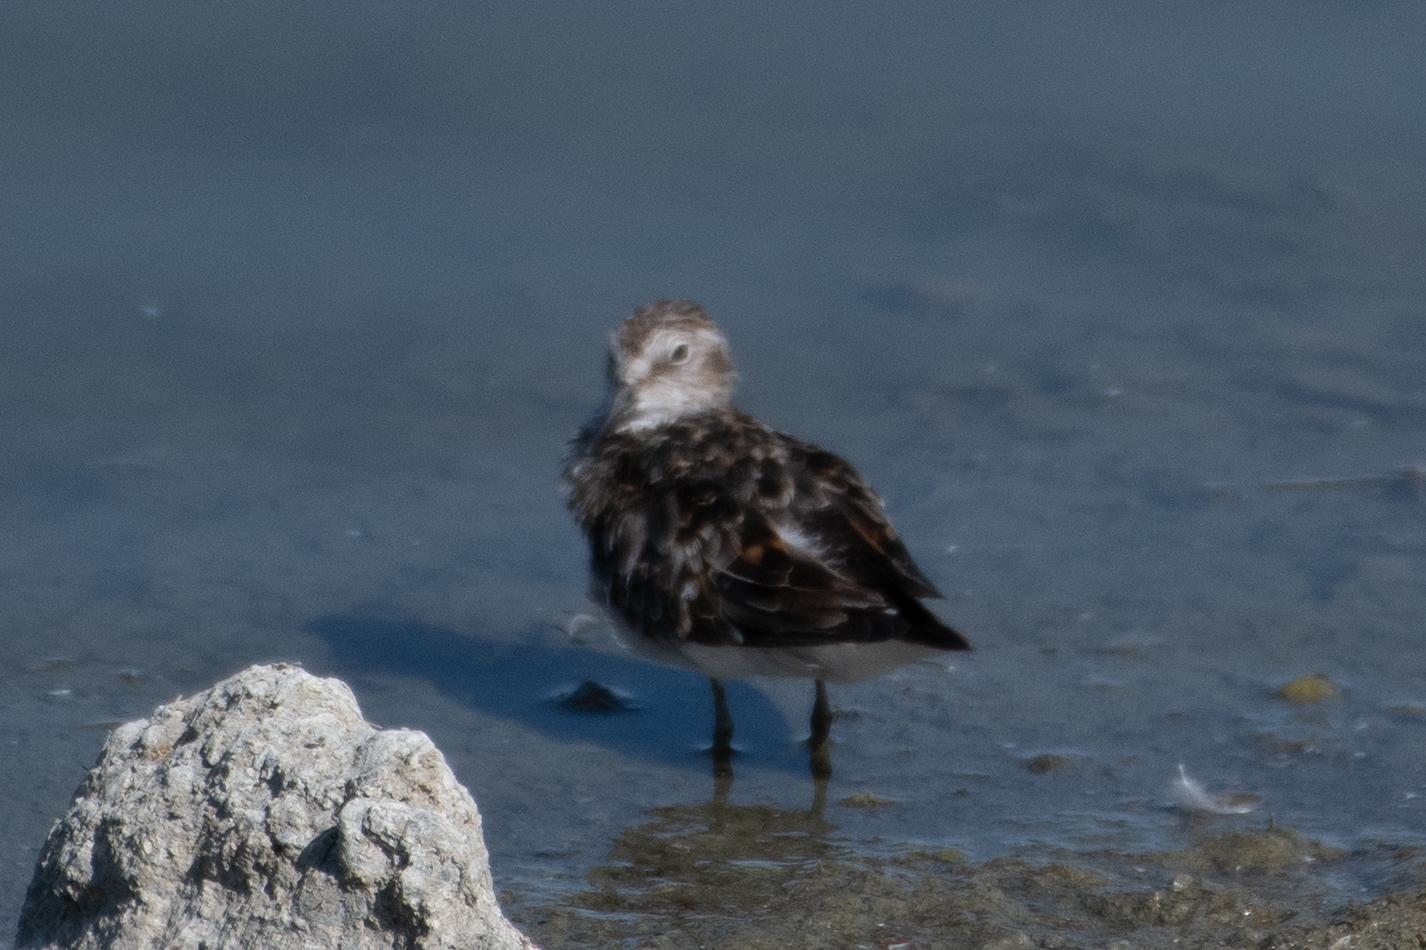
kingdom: Animalia
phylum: Chordata
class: Aves
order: Charadriiformes
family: Scolopacidae
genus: Calidris
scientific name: Calidris minutilla
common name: Least sandpiper
